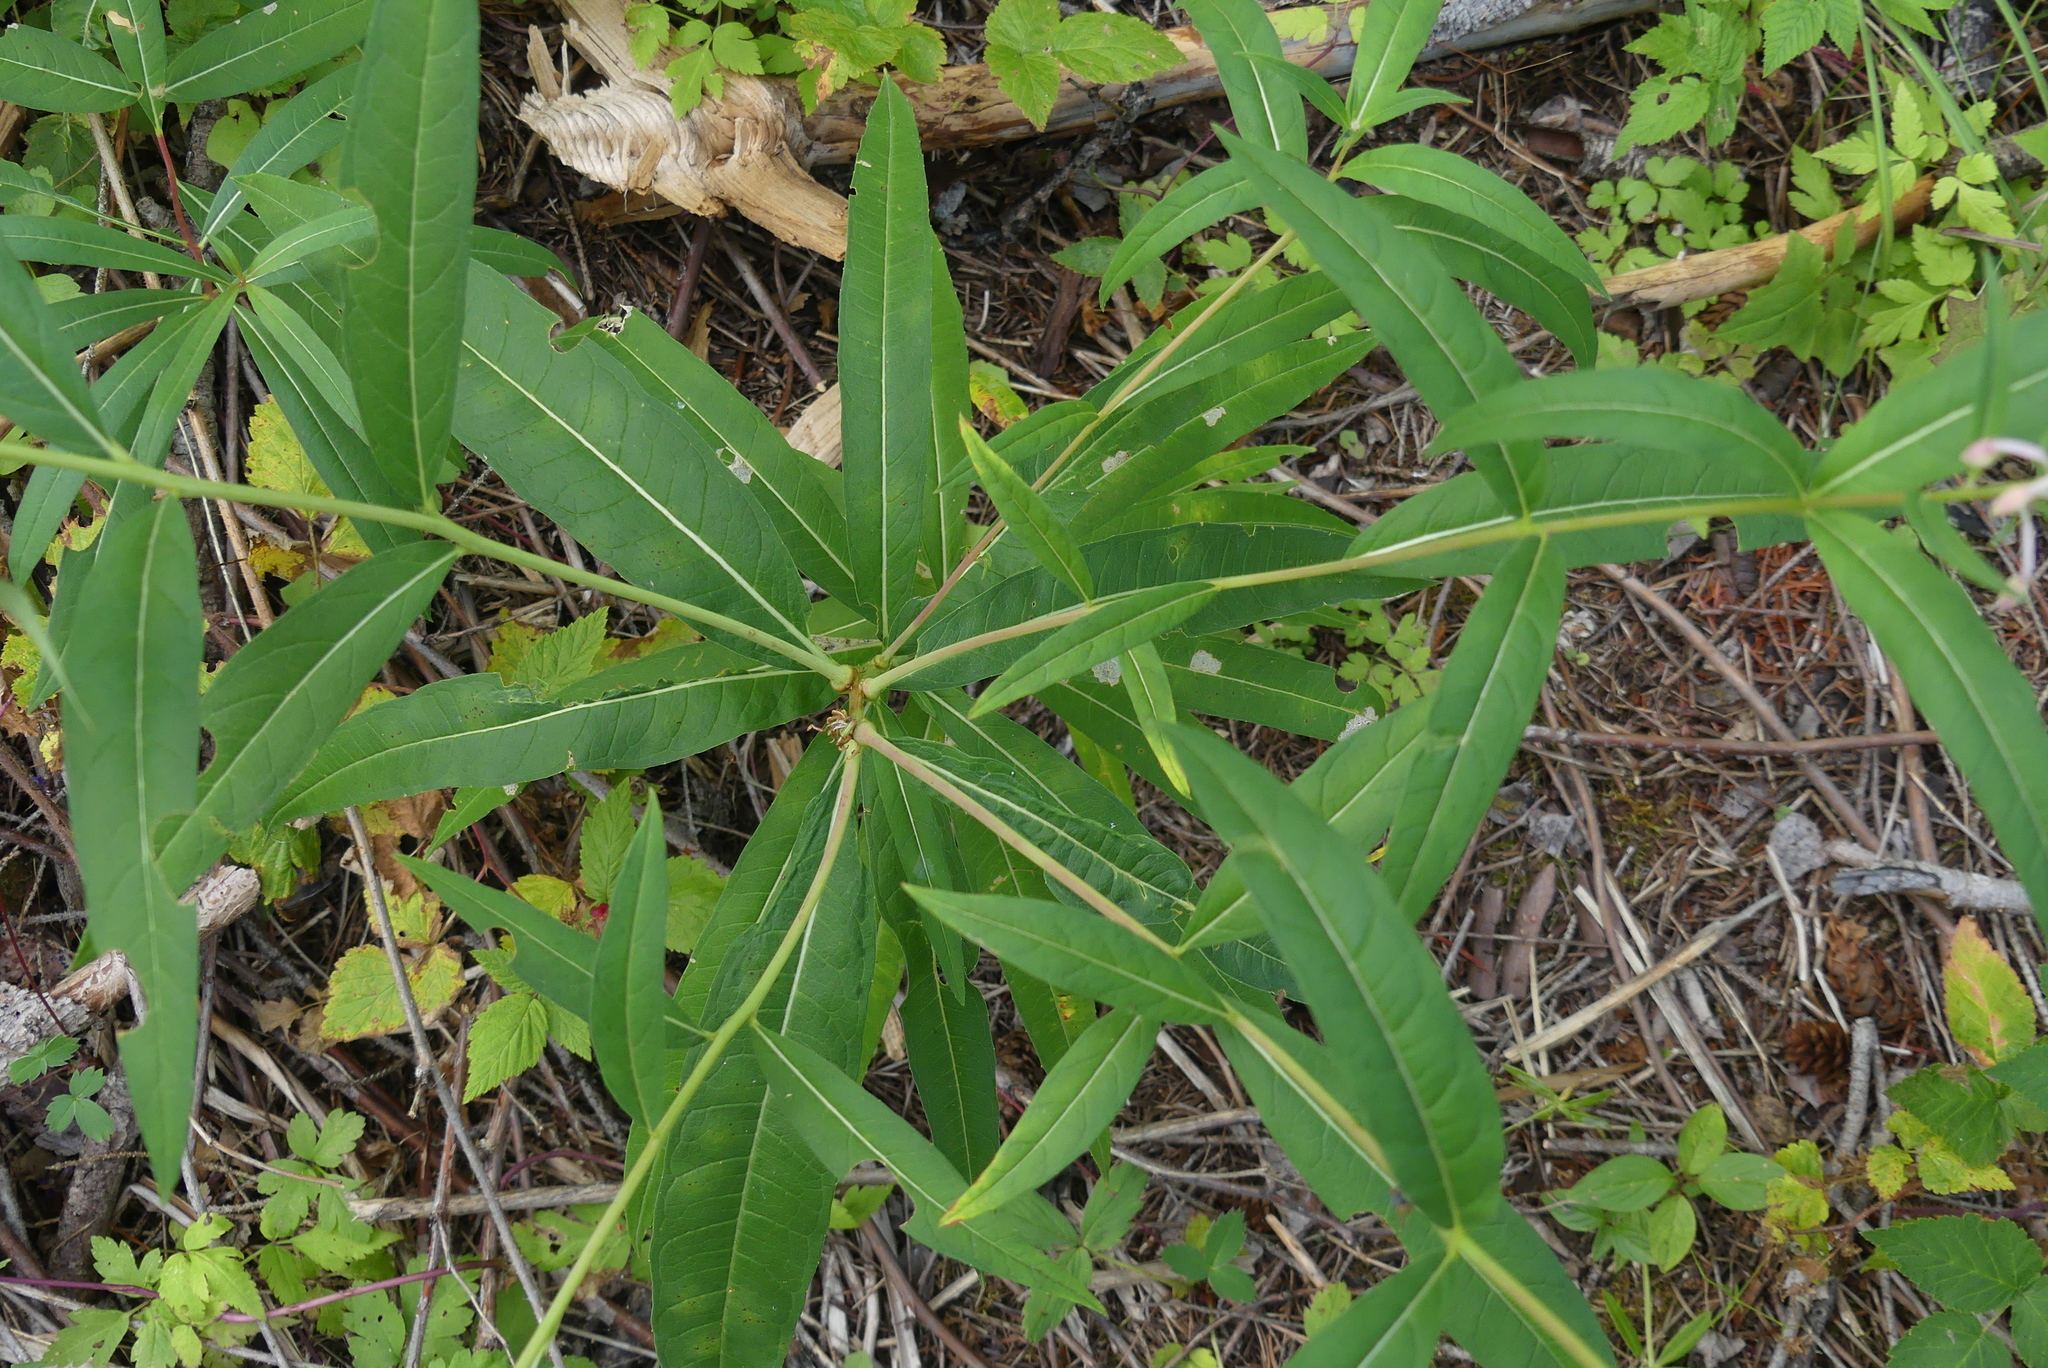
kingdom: Plantae
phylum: Tracheophyta
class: Magnoliopsida
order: Myrtales
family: Onagraceae
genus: Chamaenerion
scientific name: Chamaenerion angustifolium
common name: Fireweed
